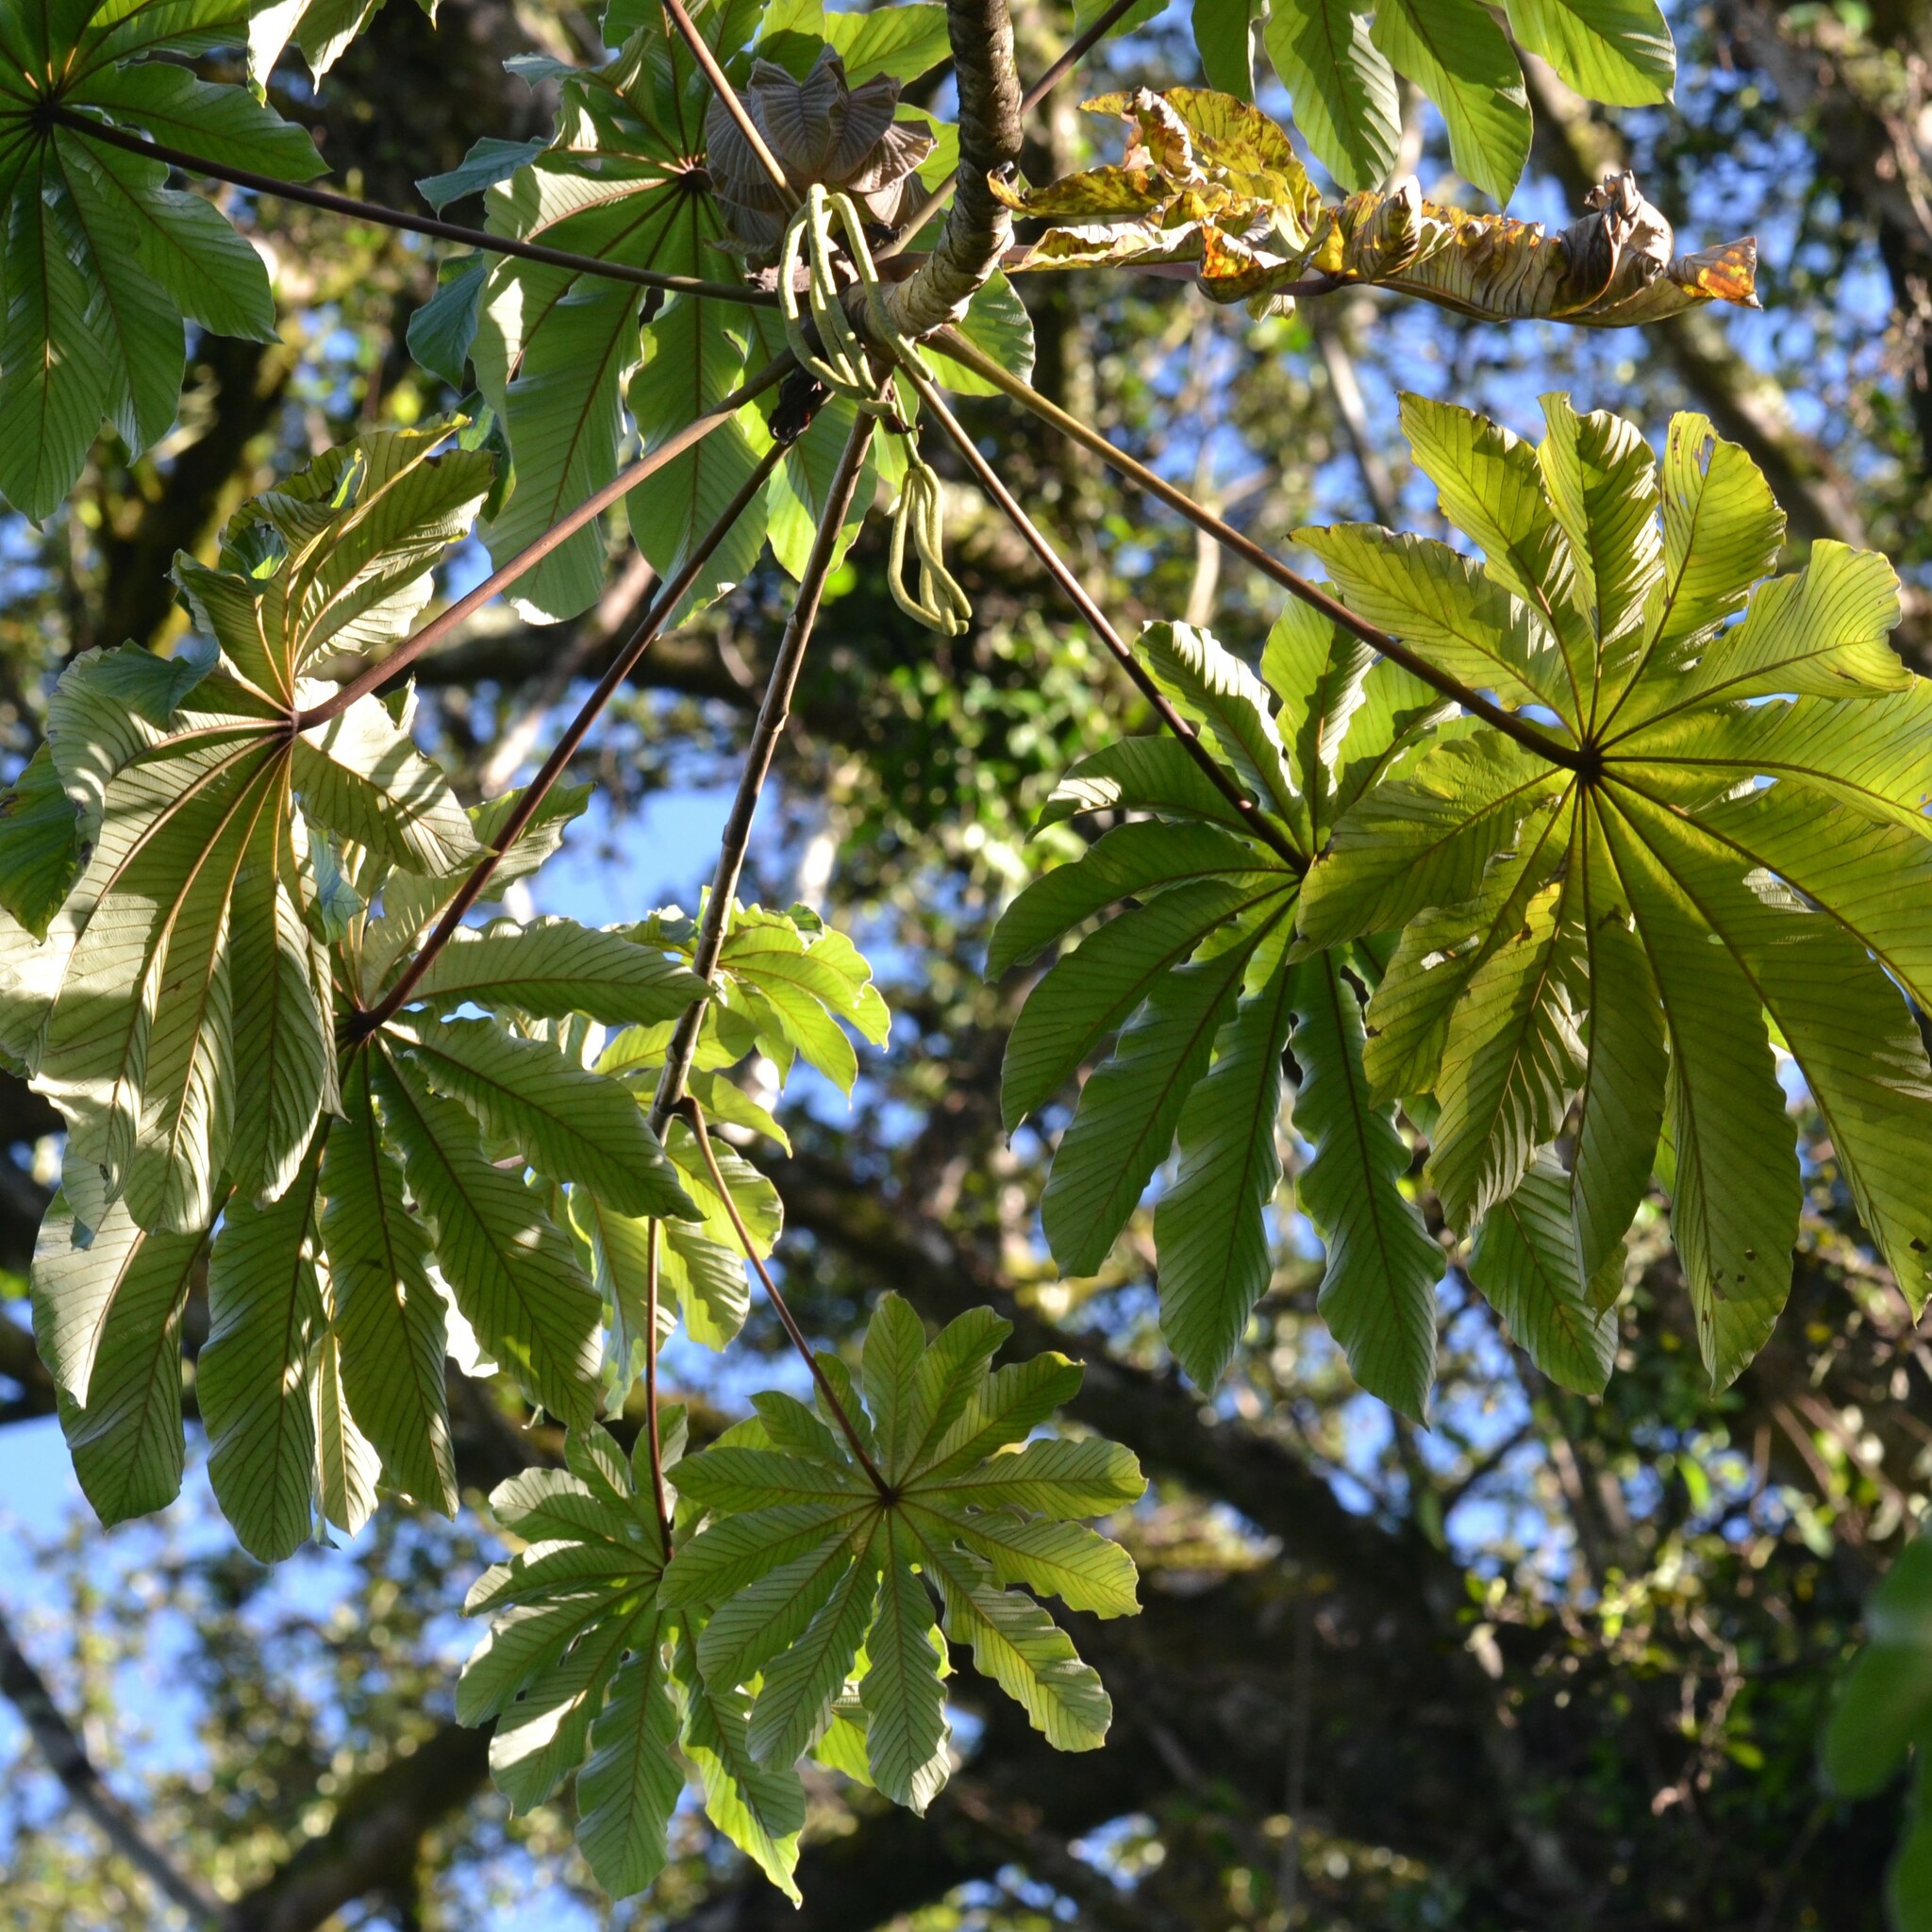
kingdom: Plantae
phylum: Tracheophyta
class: Magnoliopsida
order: Rosales
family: Urticaceae
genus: Cecropia
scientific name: Cecropia obtusifolia
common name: Trumpet tree
